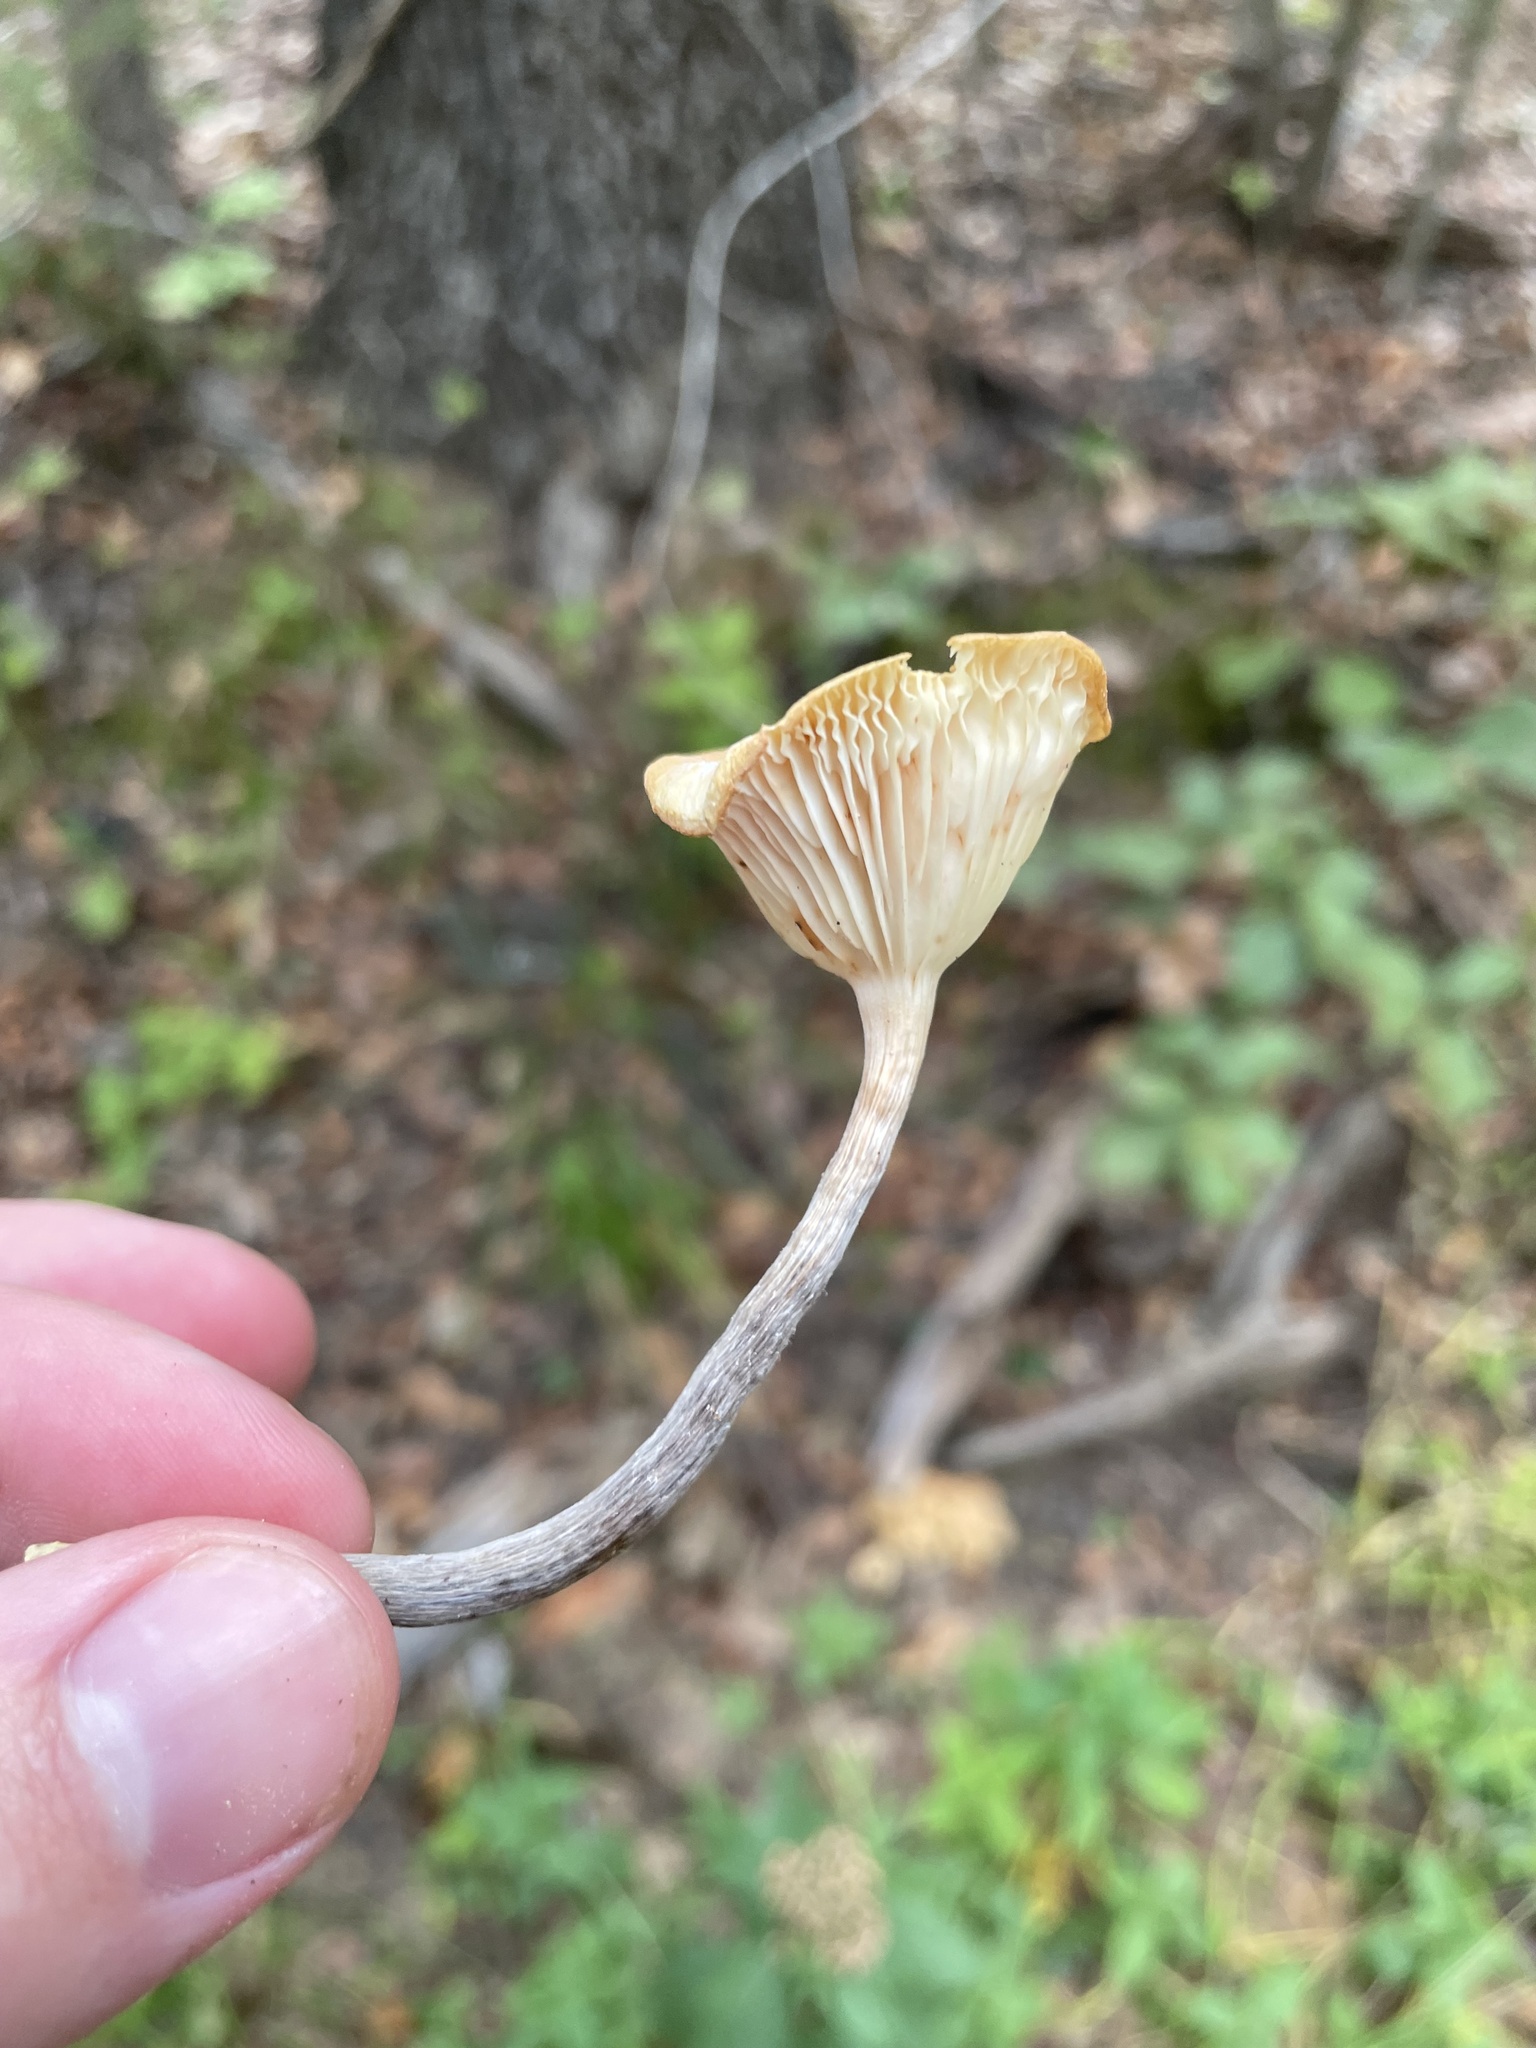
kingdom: Fungi
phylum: Basidiomycota
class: Agaricomycetes
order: Agaricales
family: Physalacriaceae
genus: Desarmillaria
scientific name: Desarmillaria caespitosa
